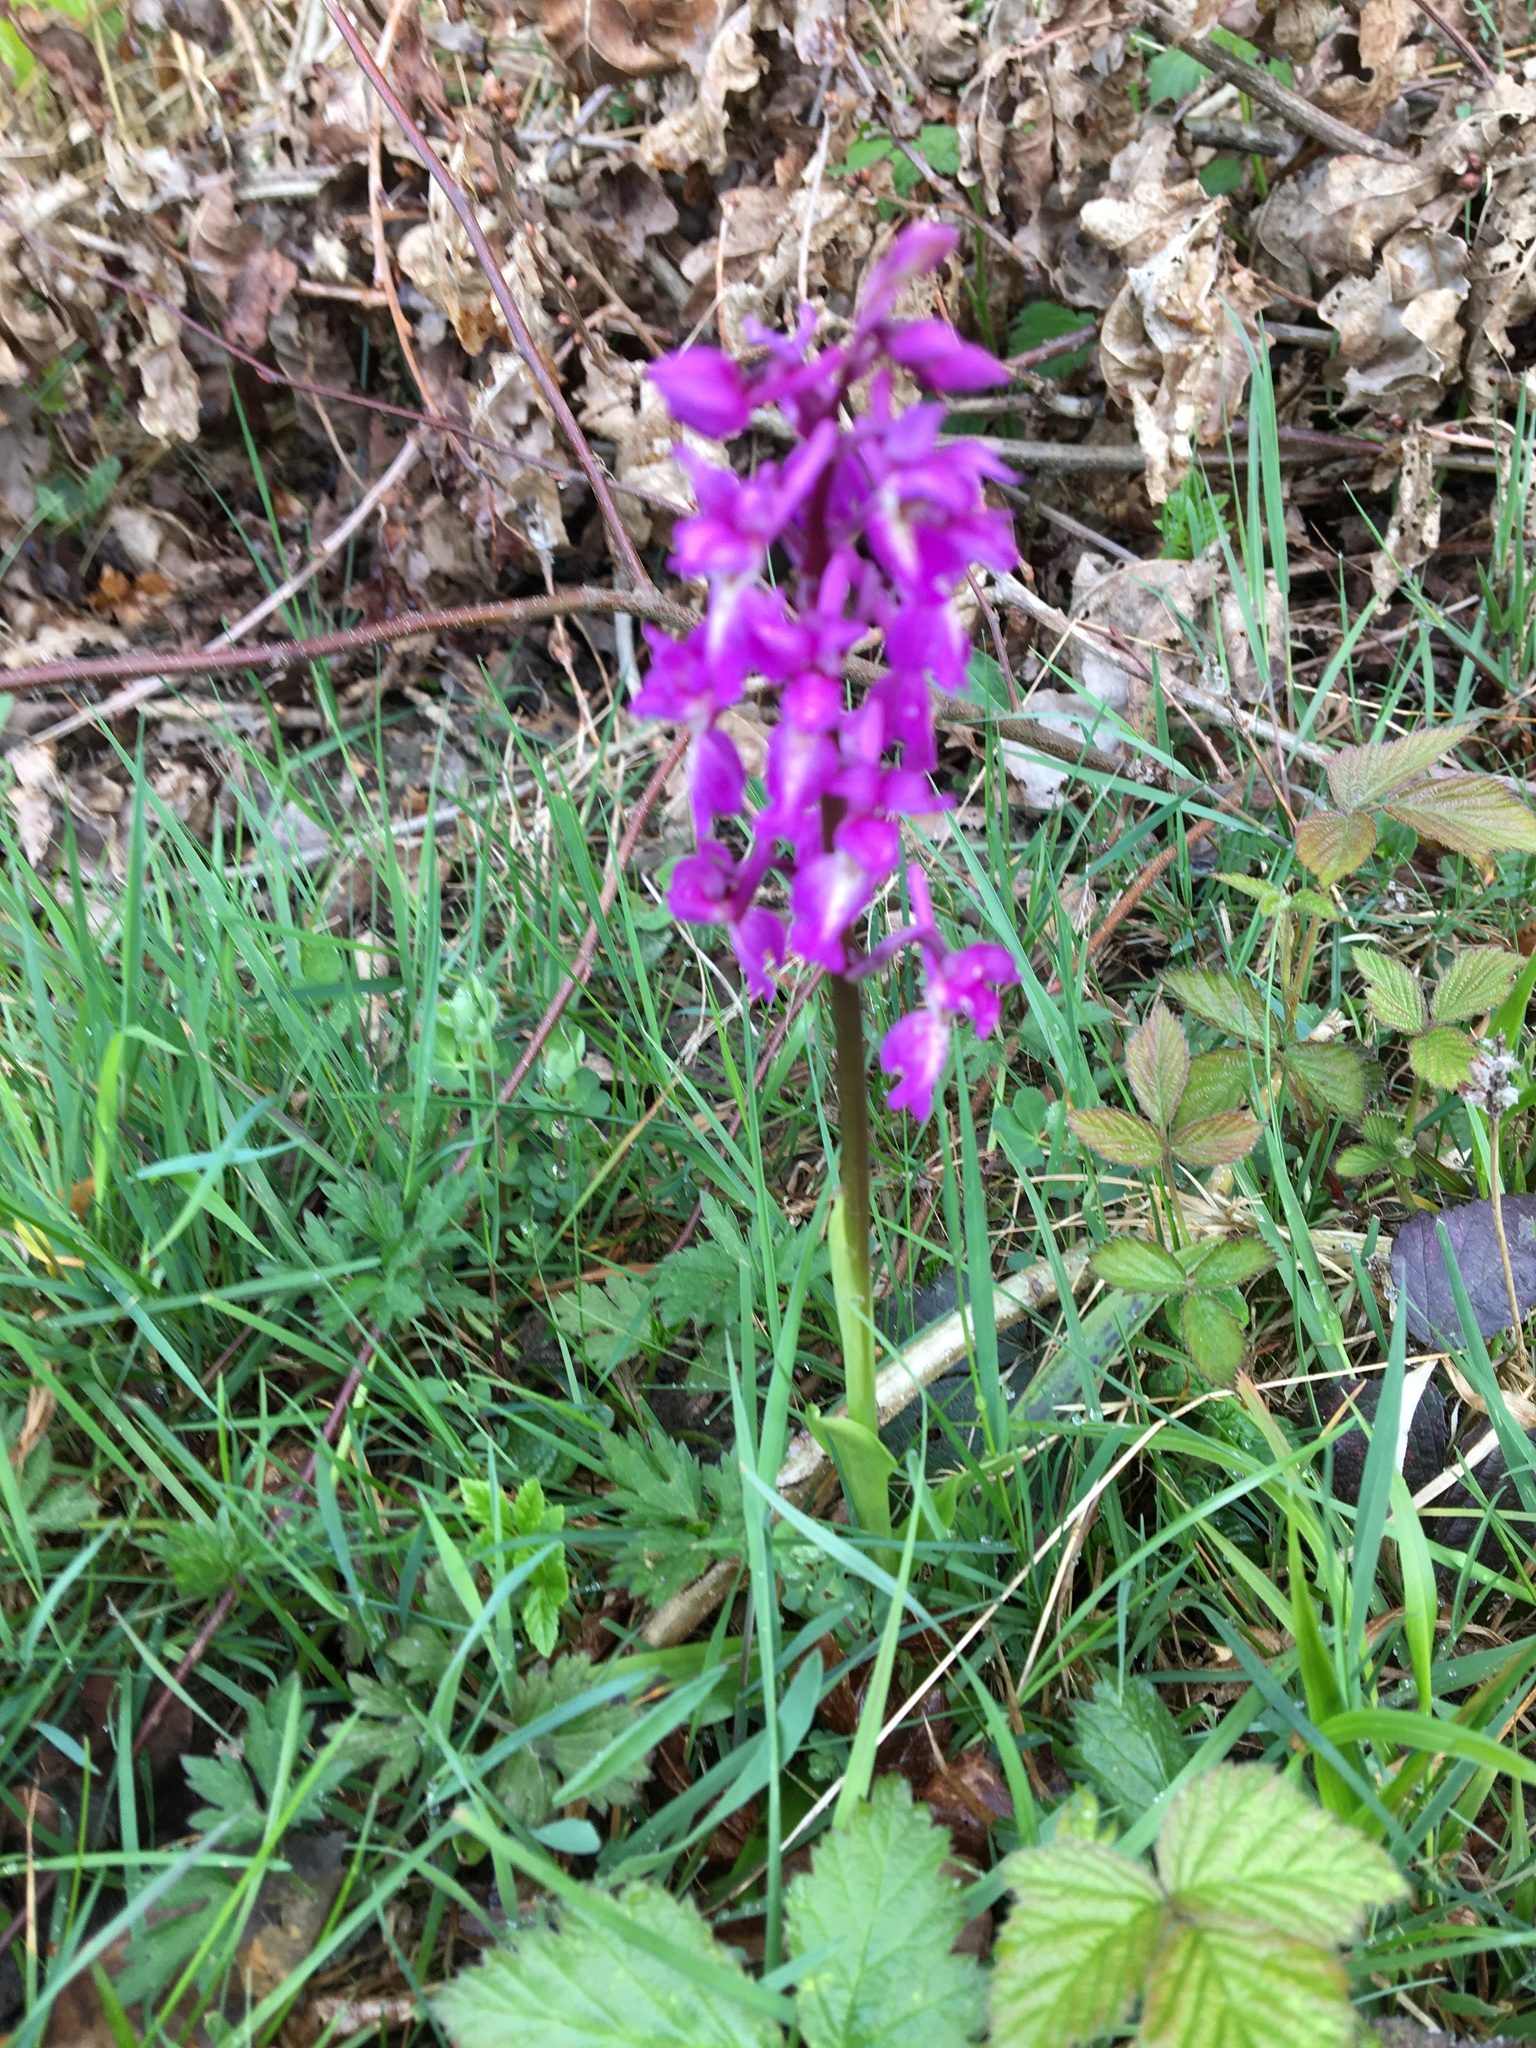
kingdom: Plantae
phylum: Tracheophyta
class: Liliopsida
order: Asparagales
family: Orchidaceae
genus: Orchis
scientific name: Orchis mascula
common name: Early-purple orchid
